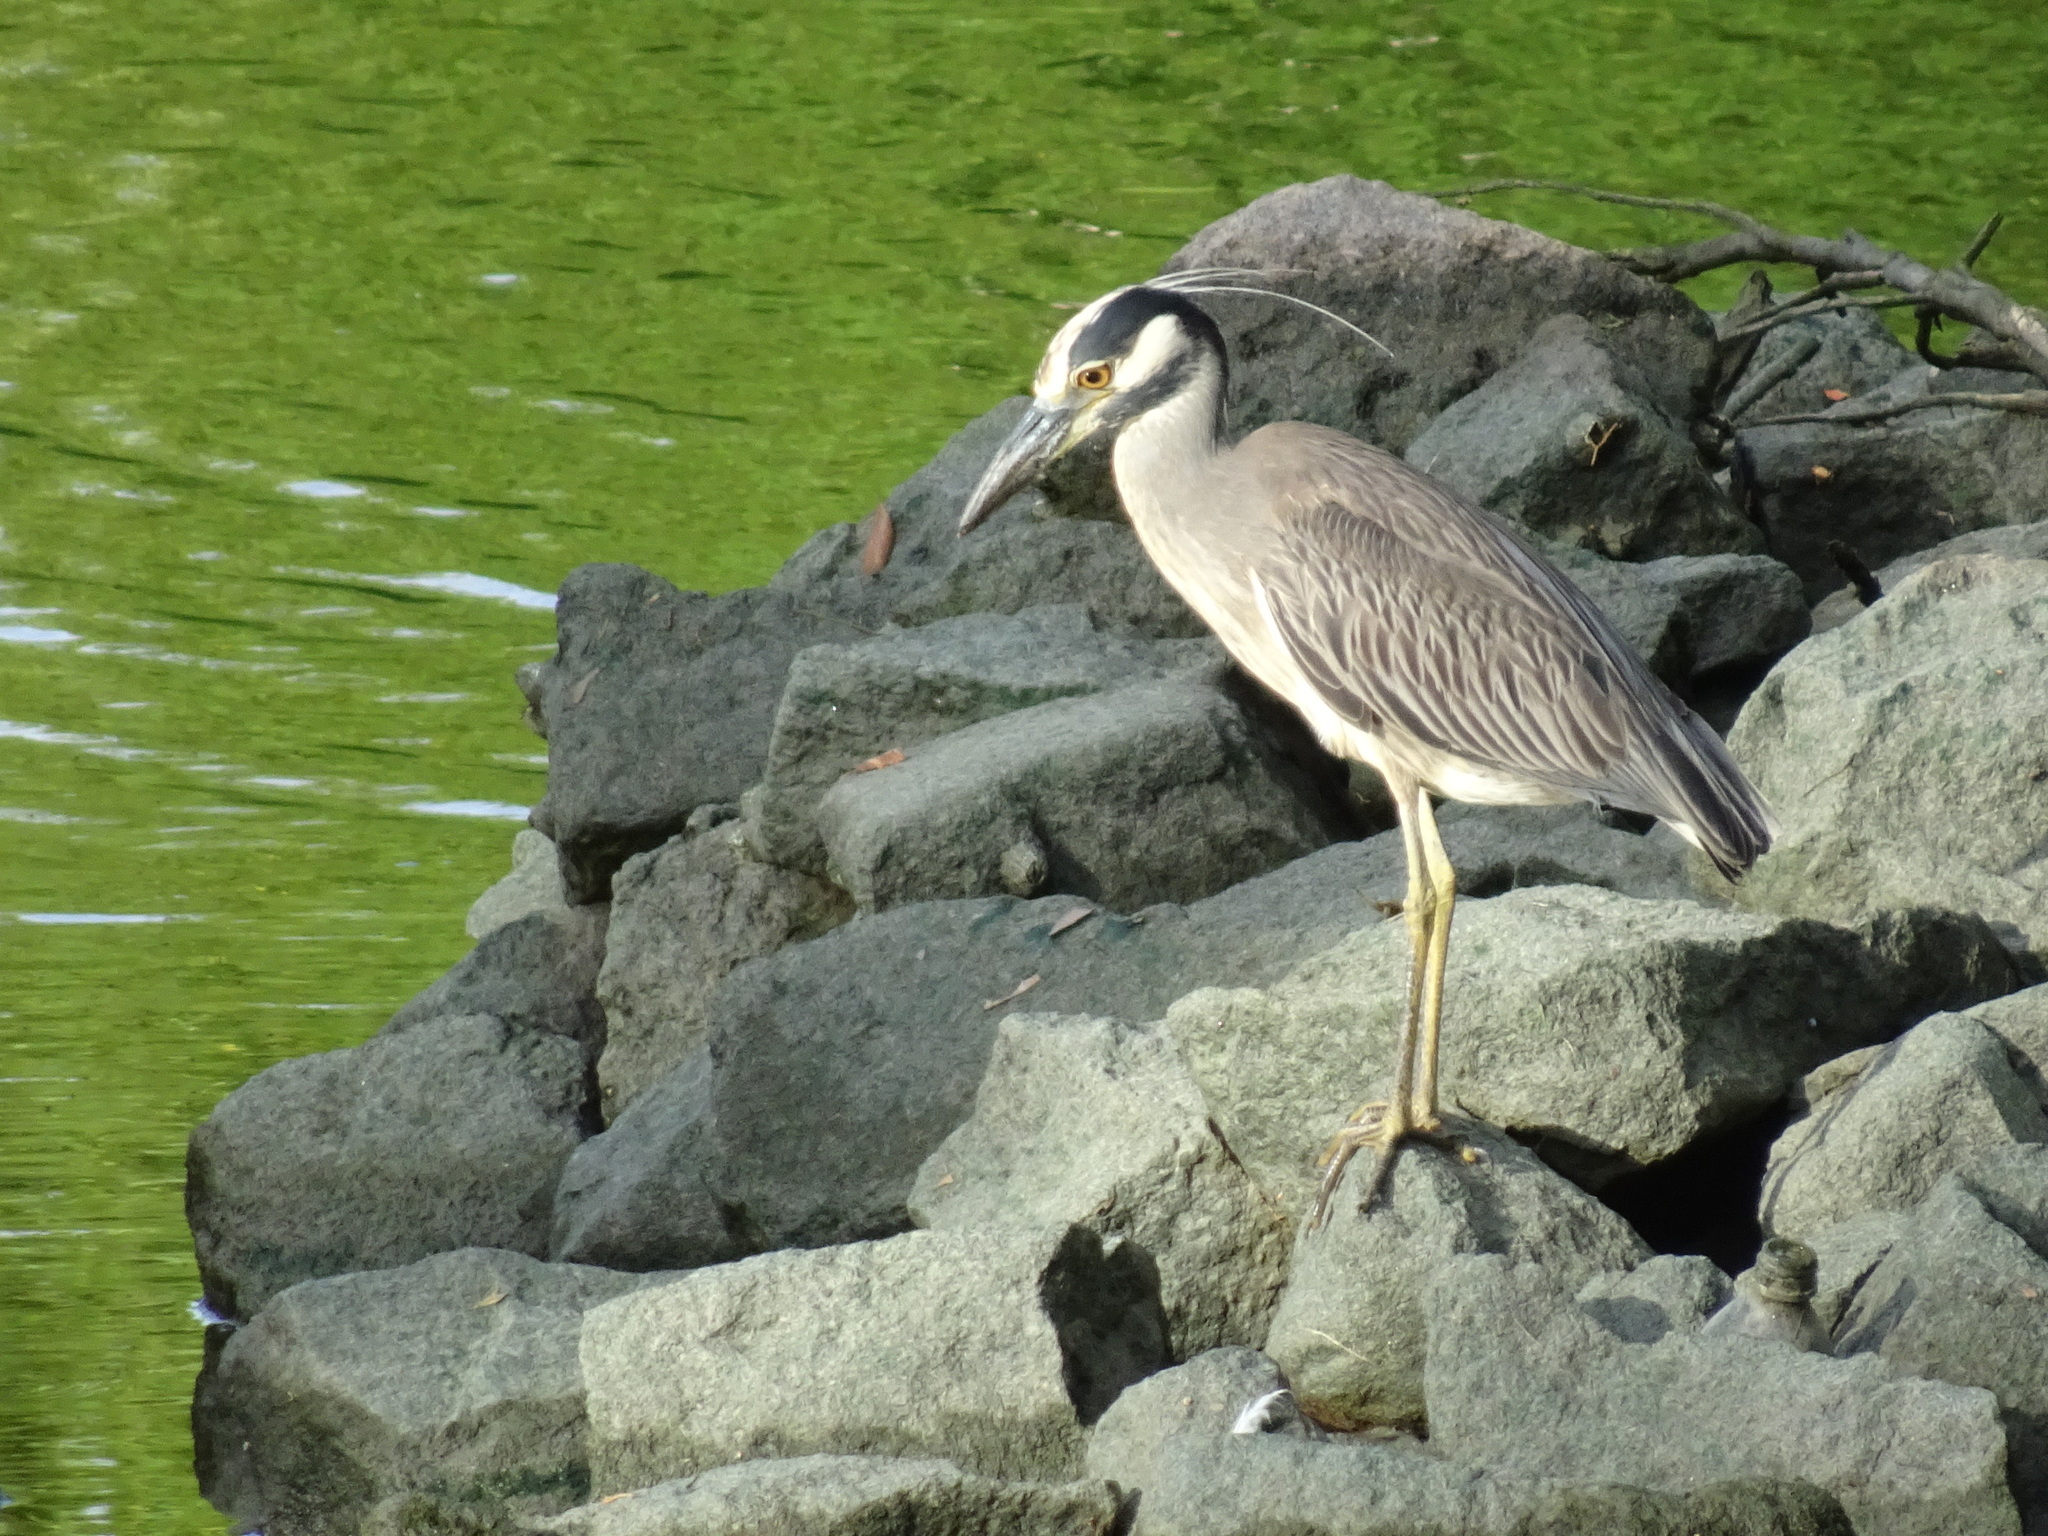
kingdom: Animalia
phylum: Chordata
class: Aves
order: Pelecaniformes
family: Ardeidae
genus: Nyctanassa
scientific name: Nyctanassa violacea
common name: Yellow-crowned night heron
